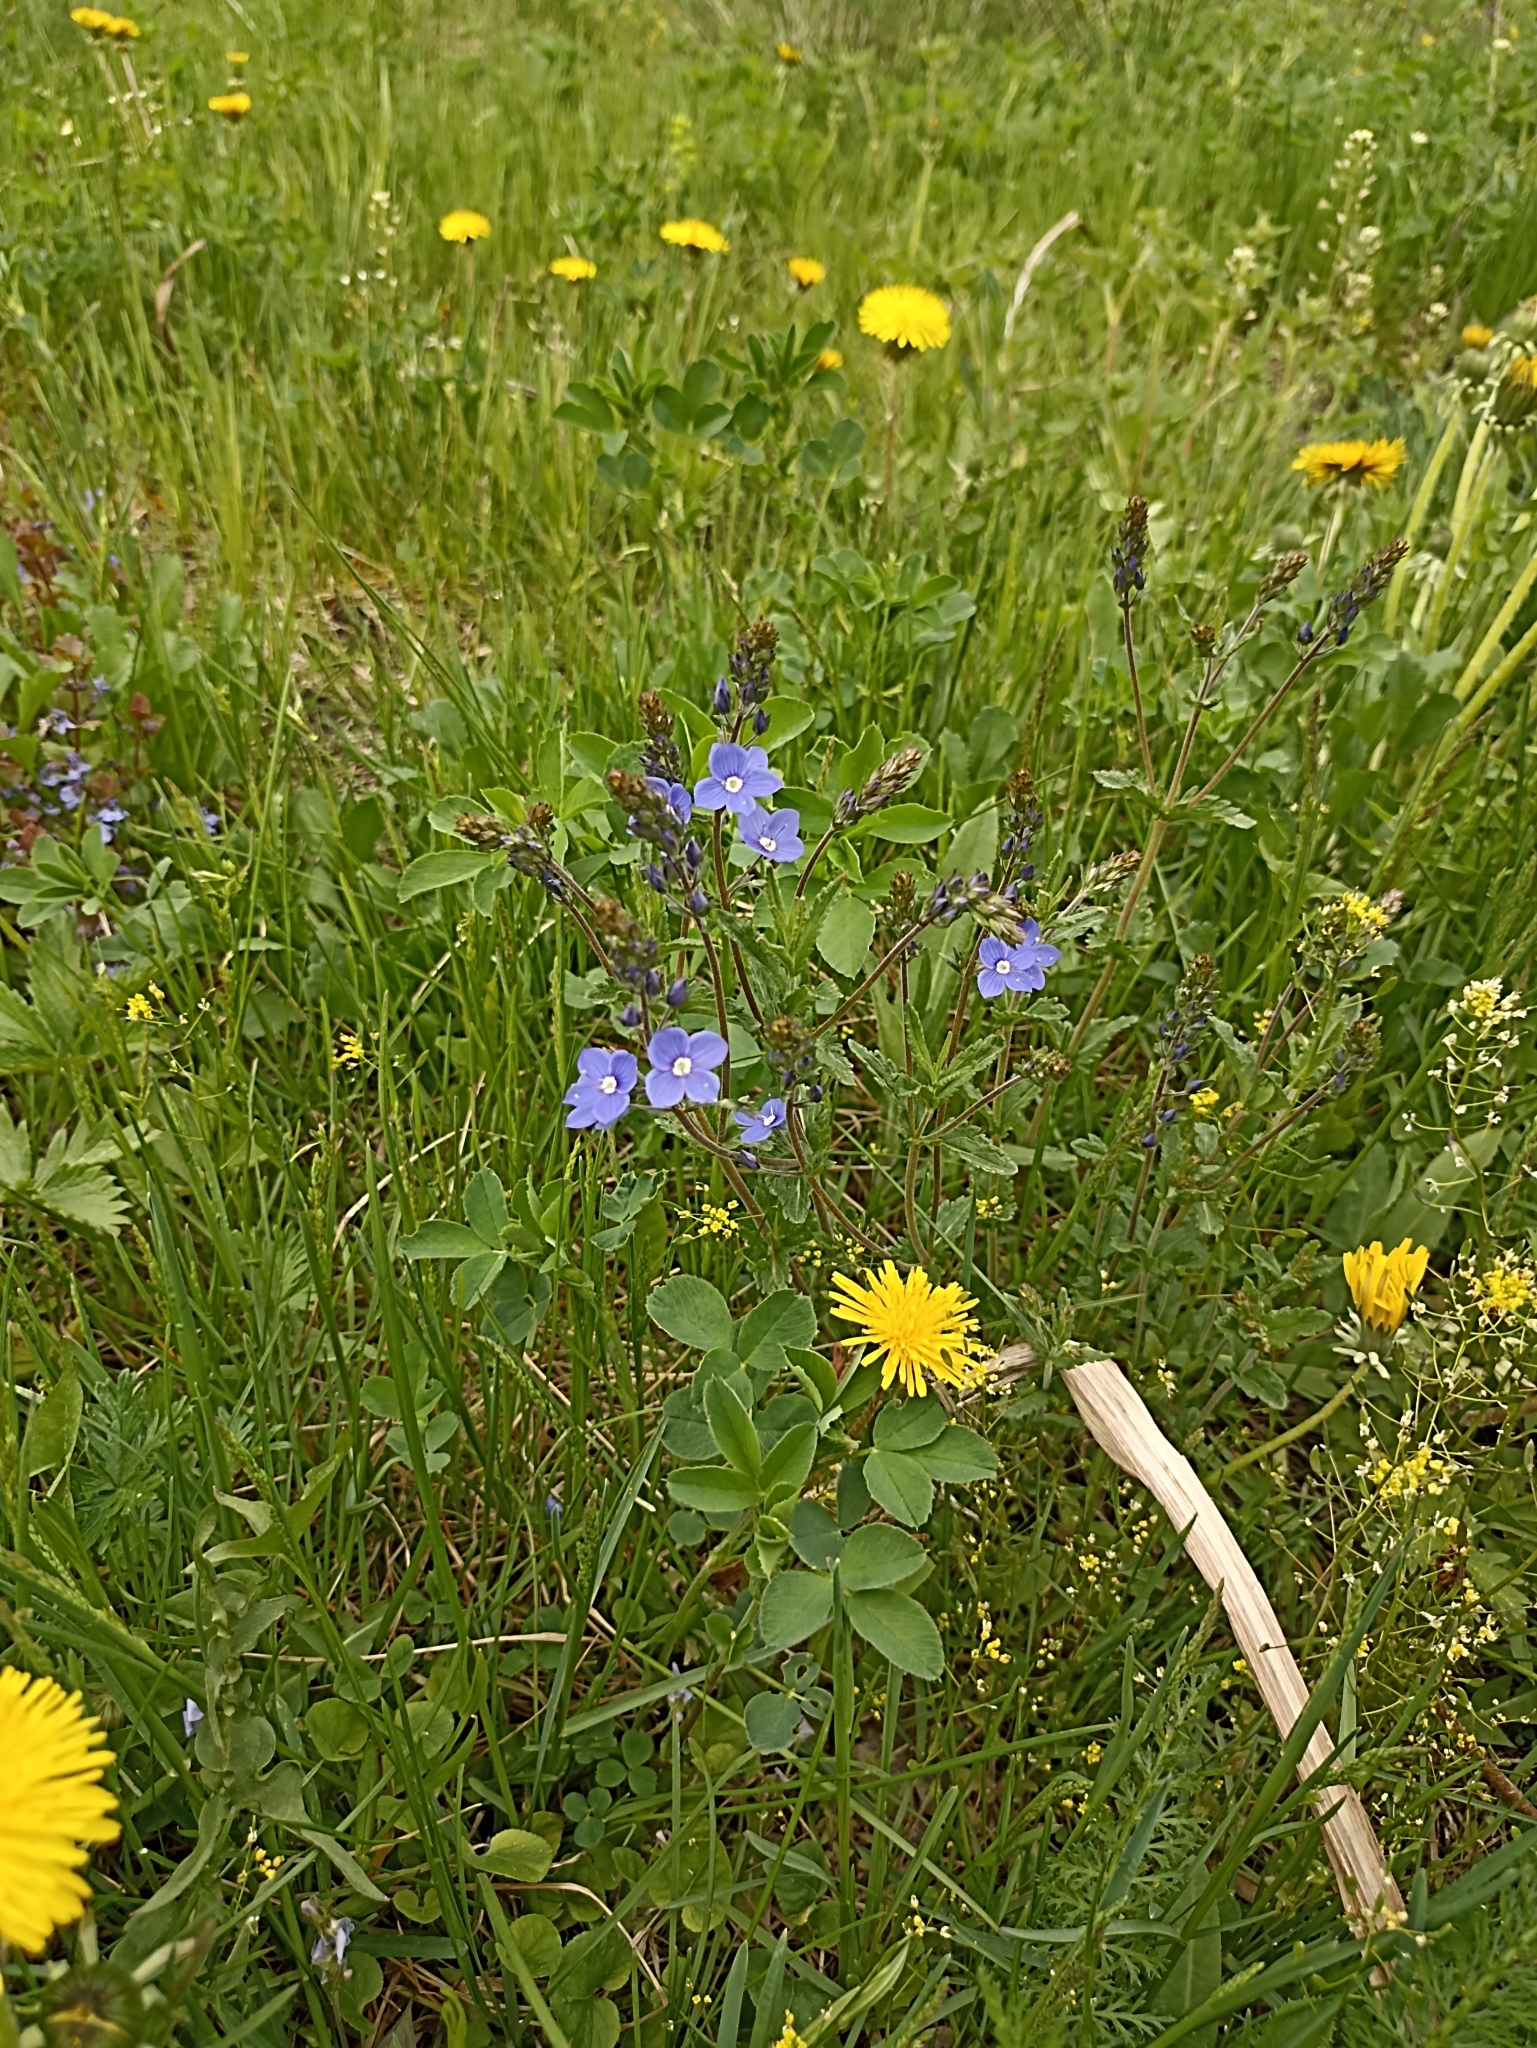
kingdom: Plantae
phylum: Tracheophyta
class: Magnoliopsida
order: Lamiales
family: Plantaginaceae
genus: Veronica
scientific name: Veronica chamaedrys
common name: Germander speedwell
